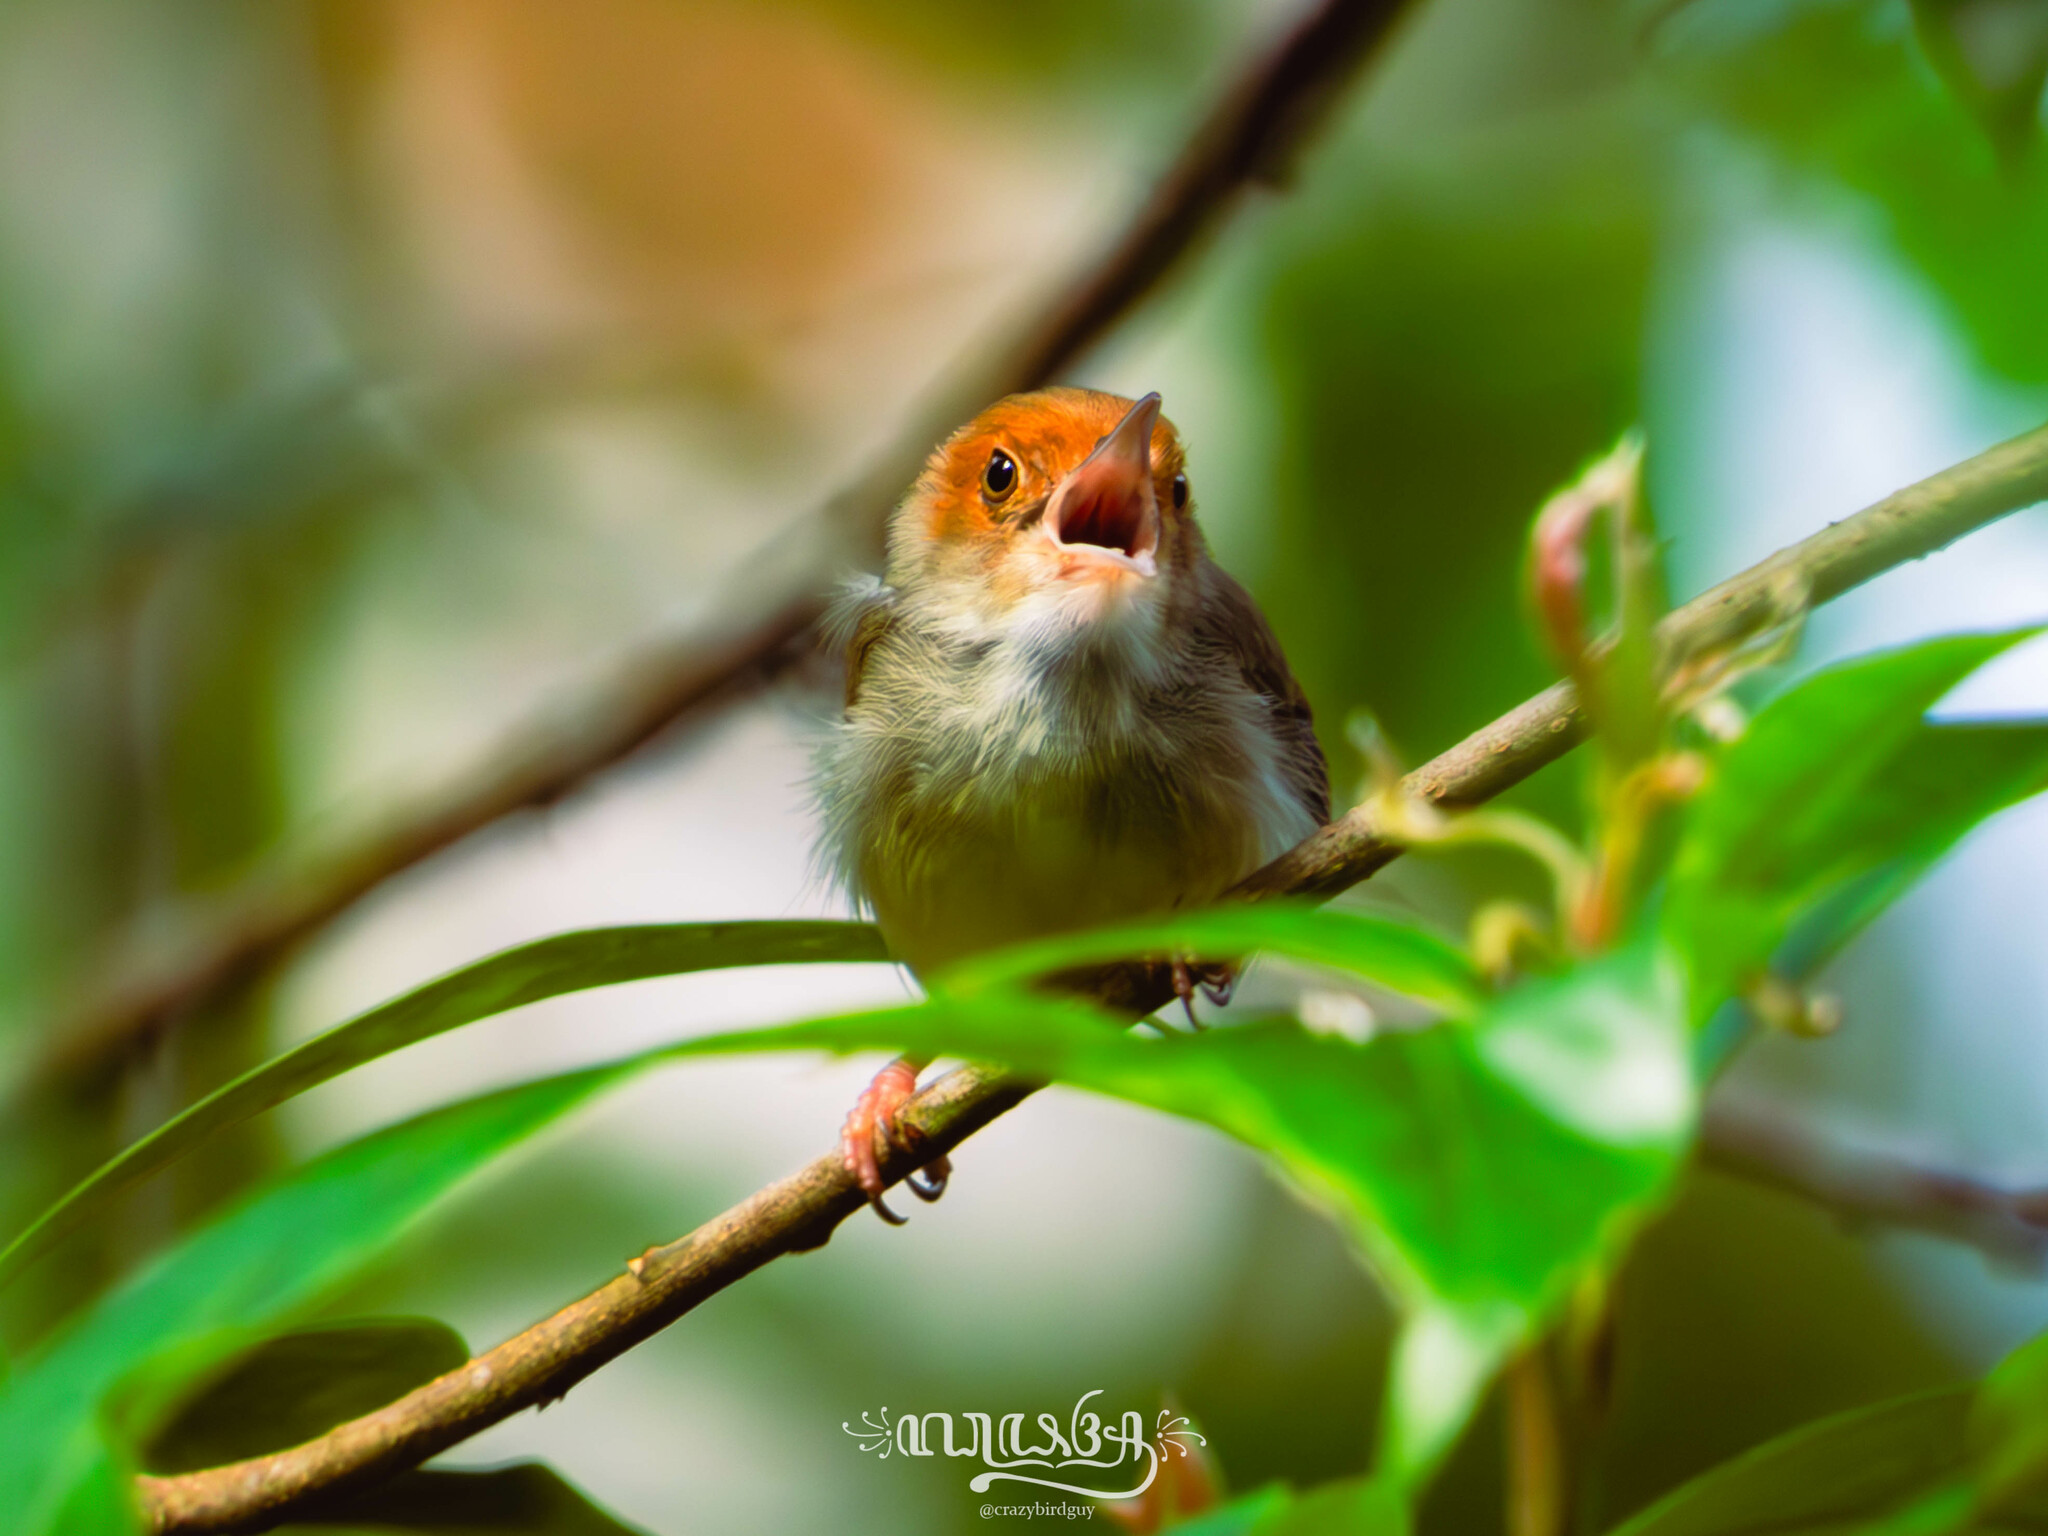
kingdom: Animalia
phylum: Chordata
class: Aves
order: Passeriformes
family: Cisticolidae
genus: Orthotomus
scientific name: Orthotomus sepium
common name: Olive-backed tailorbird
